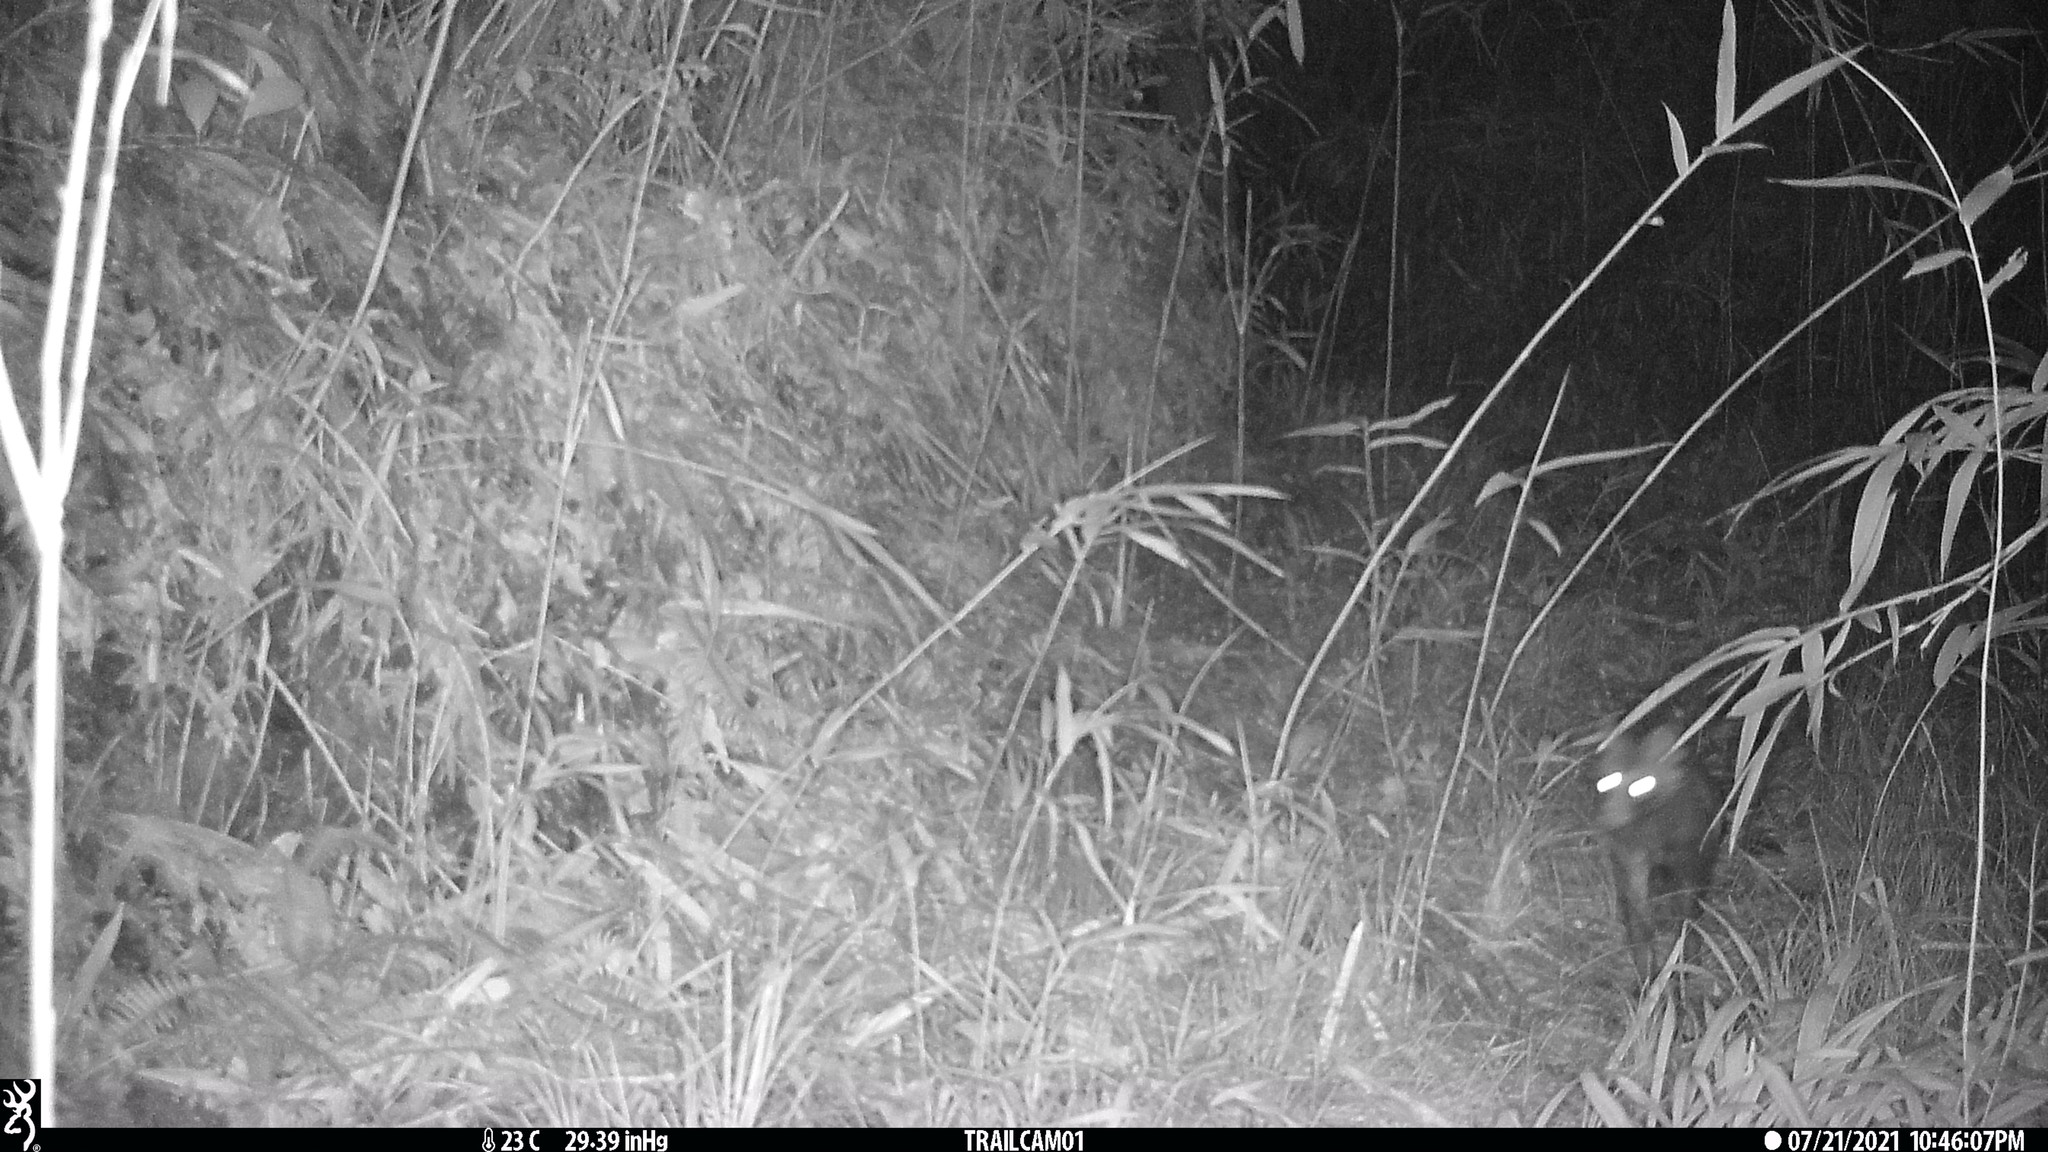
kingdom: Animalia
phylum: Chordata
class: Mammalia
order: Carnivora
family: Canidae
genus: Nyctereutes
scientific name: Nyctereutes
